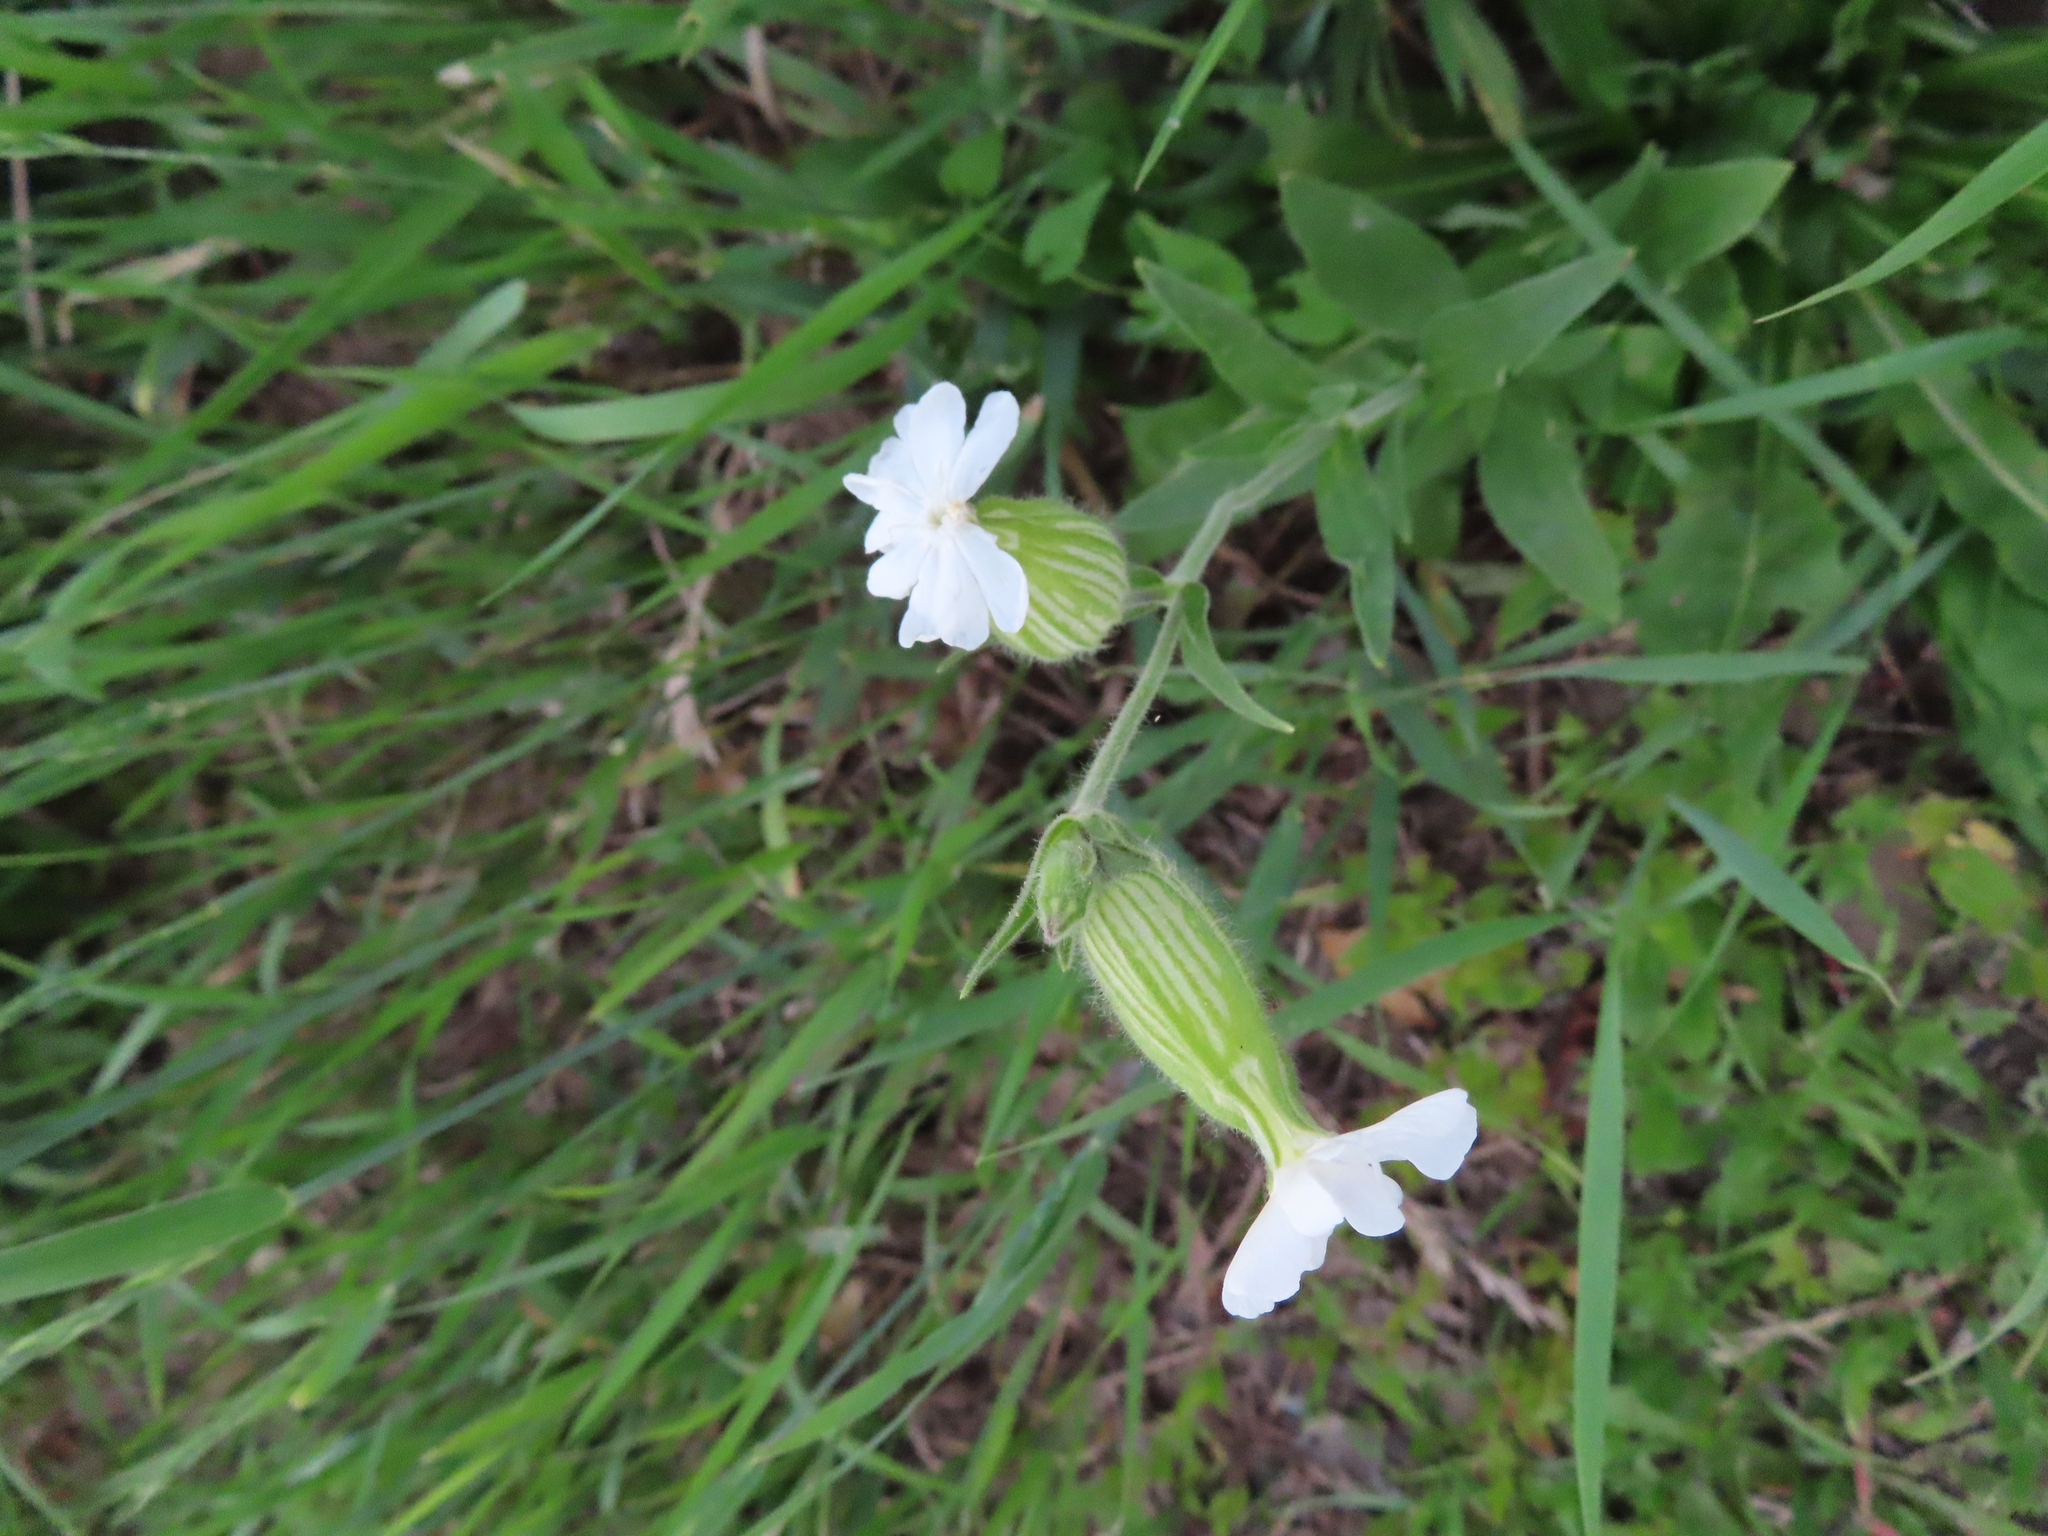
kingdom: Plantae
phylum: Tracheophyta
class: Magnoliopsida
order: Caryophyllales
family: Caryophyllaceae
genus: Silene
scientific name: Silene latifolia
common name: White campion
